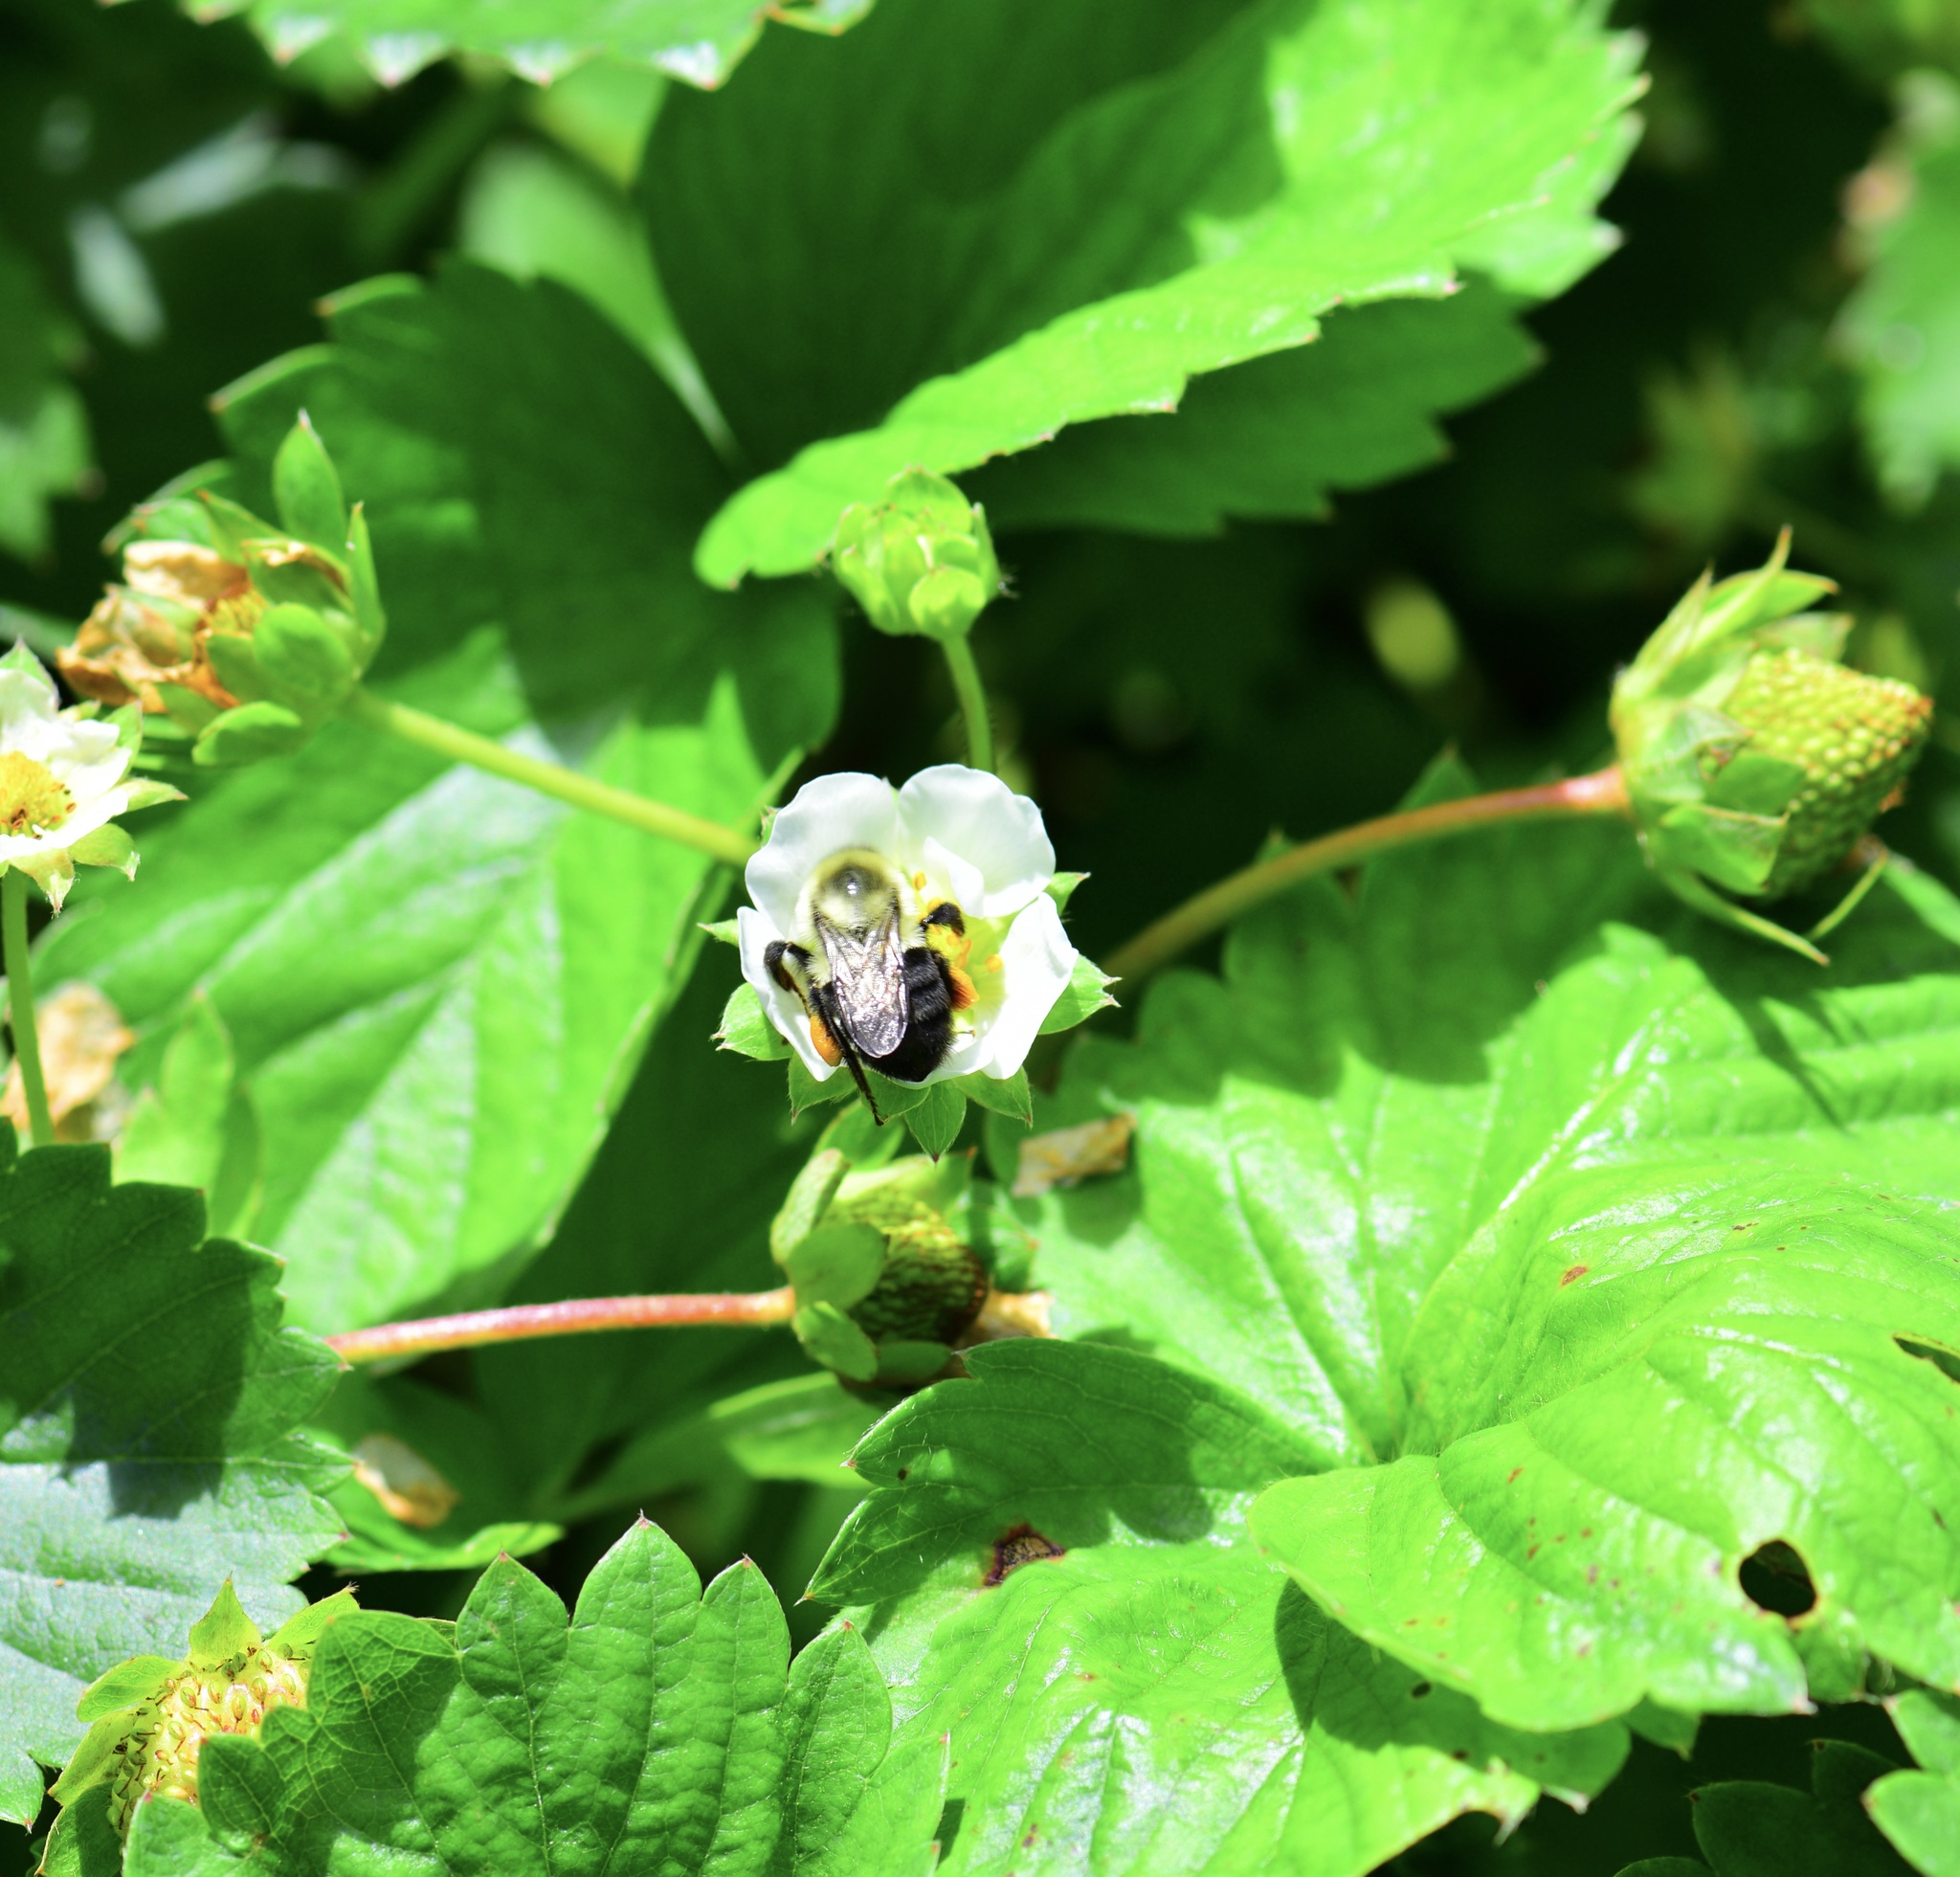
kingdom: Animalia
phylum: Arthropoda
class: Insecta
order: Hymenoptera
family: Apidae
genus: Bombus
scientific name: Bombus impatiens
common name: Common eastern bumble bee
